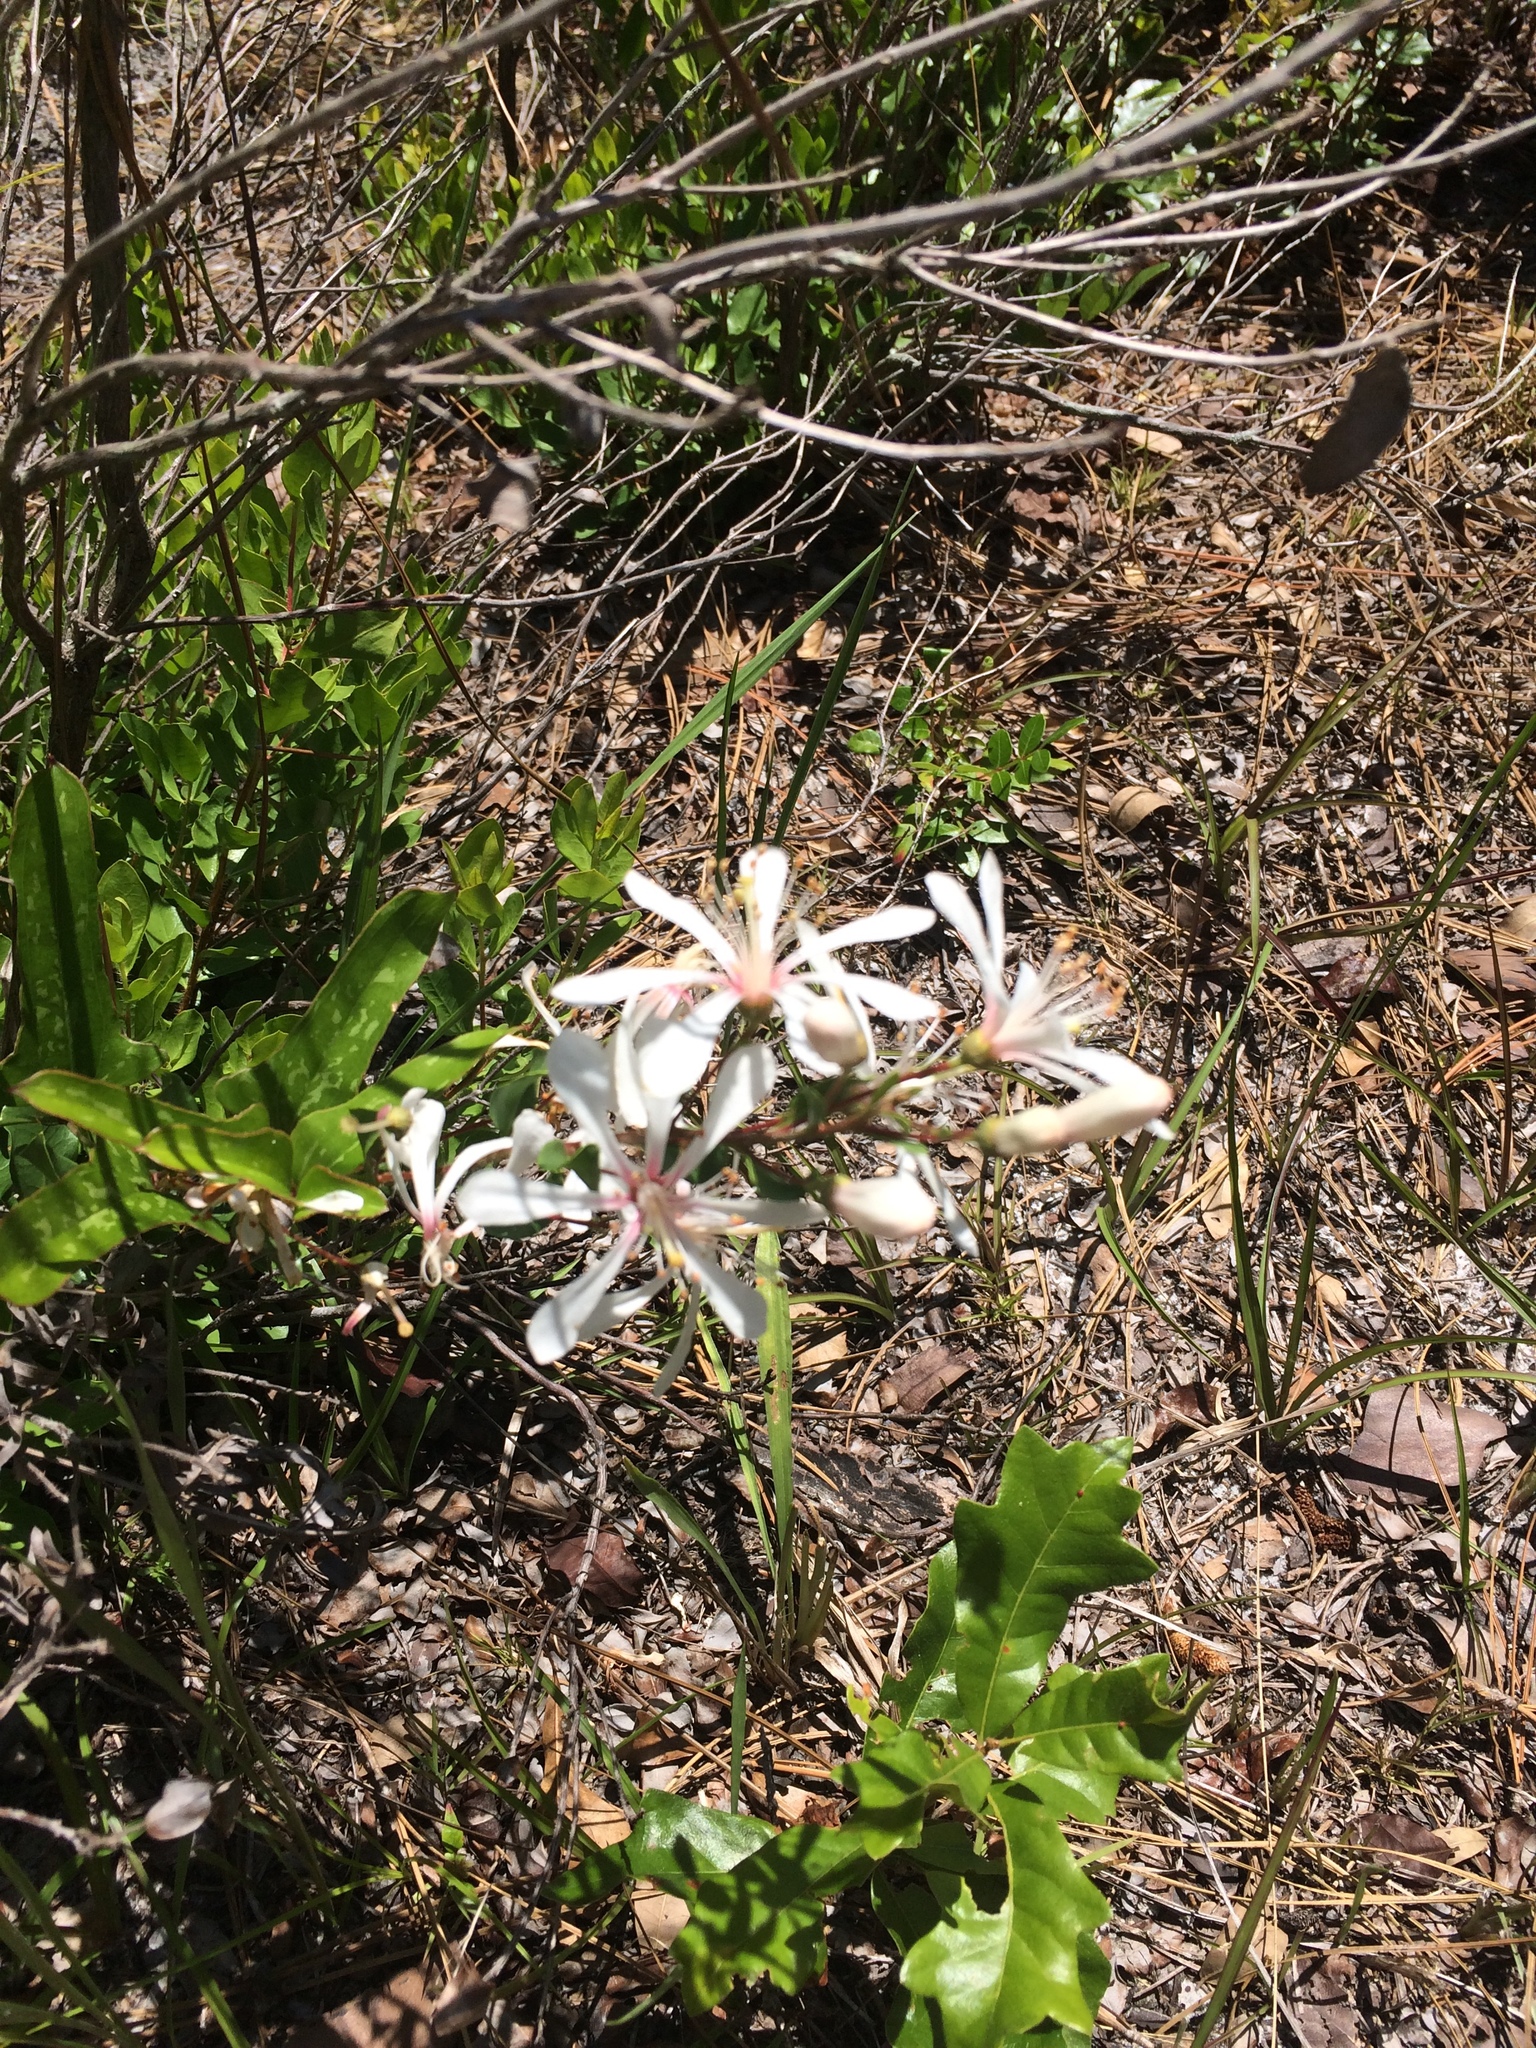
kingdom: Plantae
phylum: Tracheophyta
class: Magnoliopsida
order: Ericales
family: Ericaceae
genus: Bejaria
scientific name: Bejaria racemosa
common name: Tarflower
